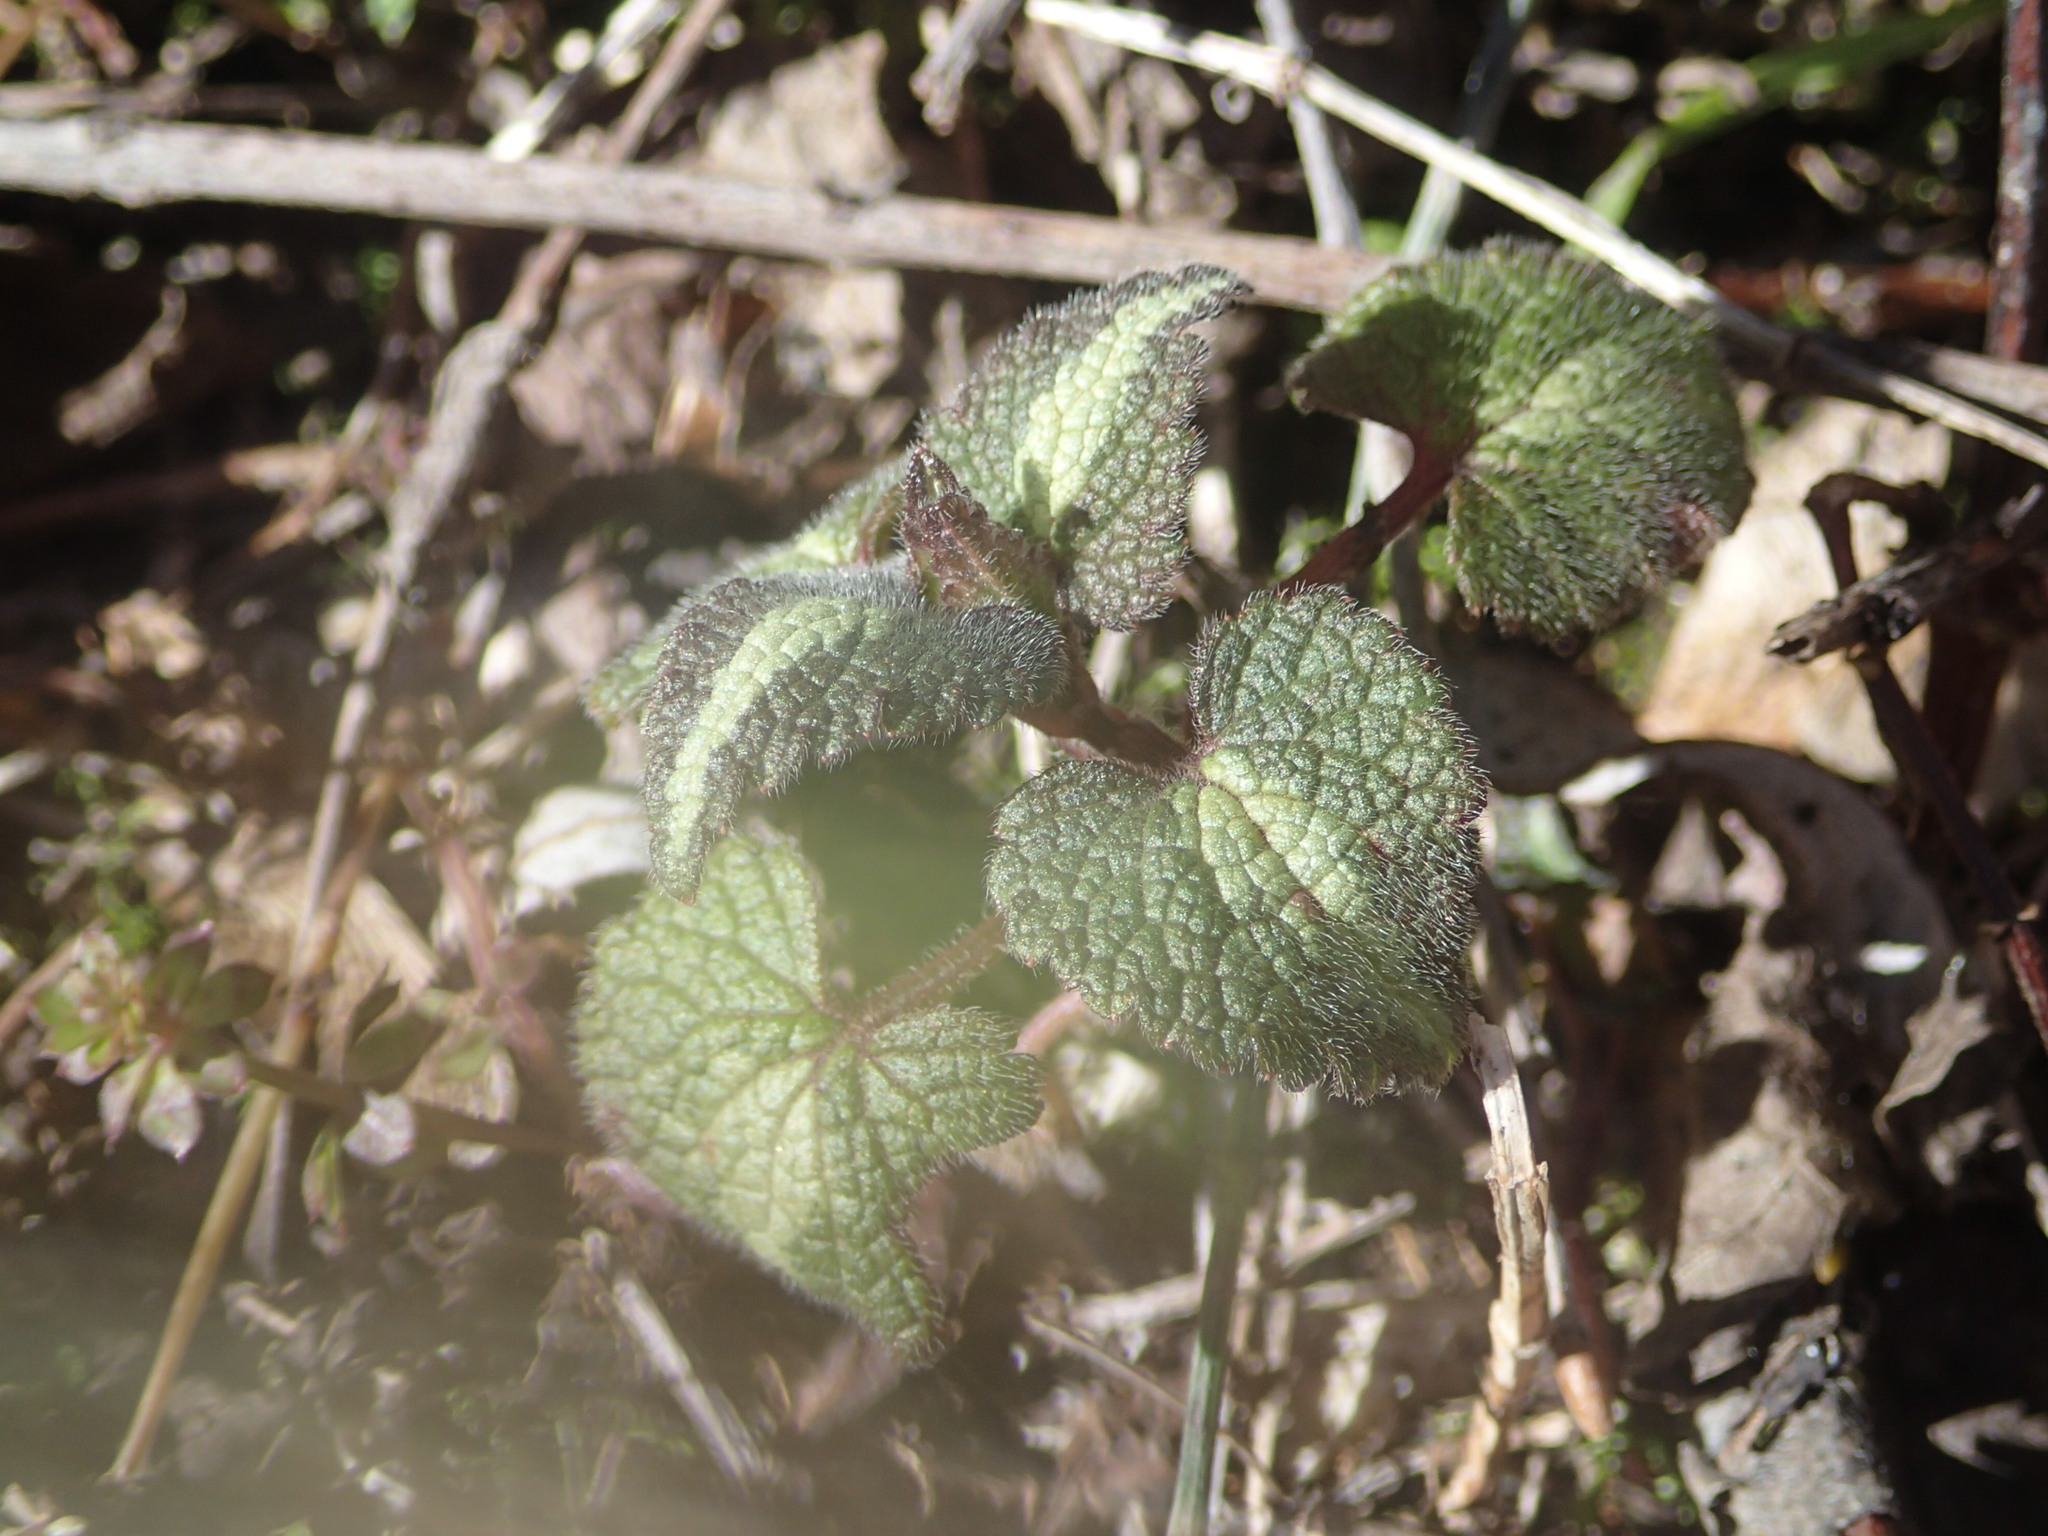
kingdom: Plantae
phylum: Tracheophyta
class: Magnoliopsida
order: Lamiales
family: Lamiaceae
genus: Lamium
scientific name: Lamium maculatum
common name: Spotted dead-nettle
